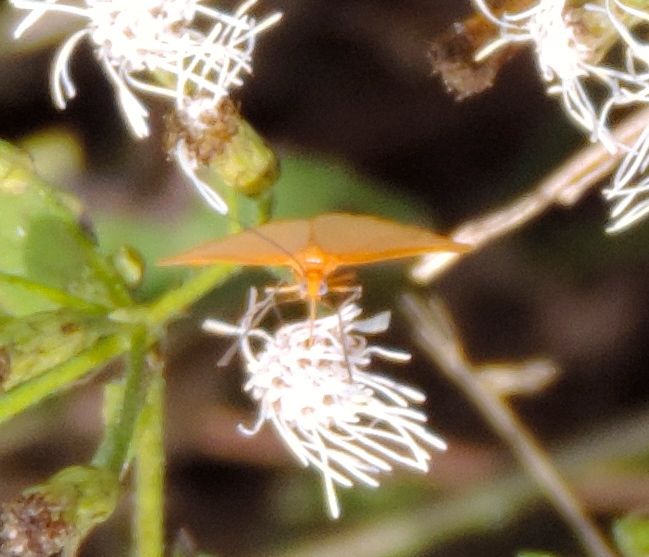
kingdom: Animalia
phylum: Arthropoda
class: Insecta
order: Lepidoptera
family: Geometridae
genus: Eubaphe
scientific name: Eubaphe unicolor
